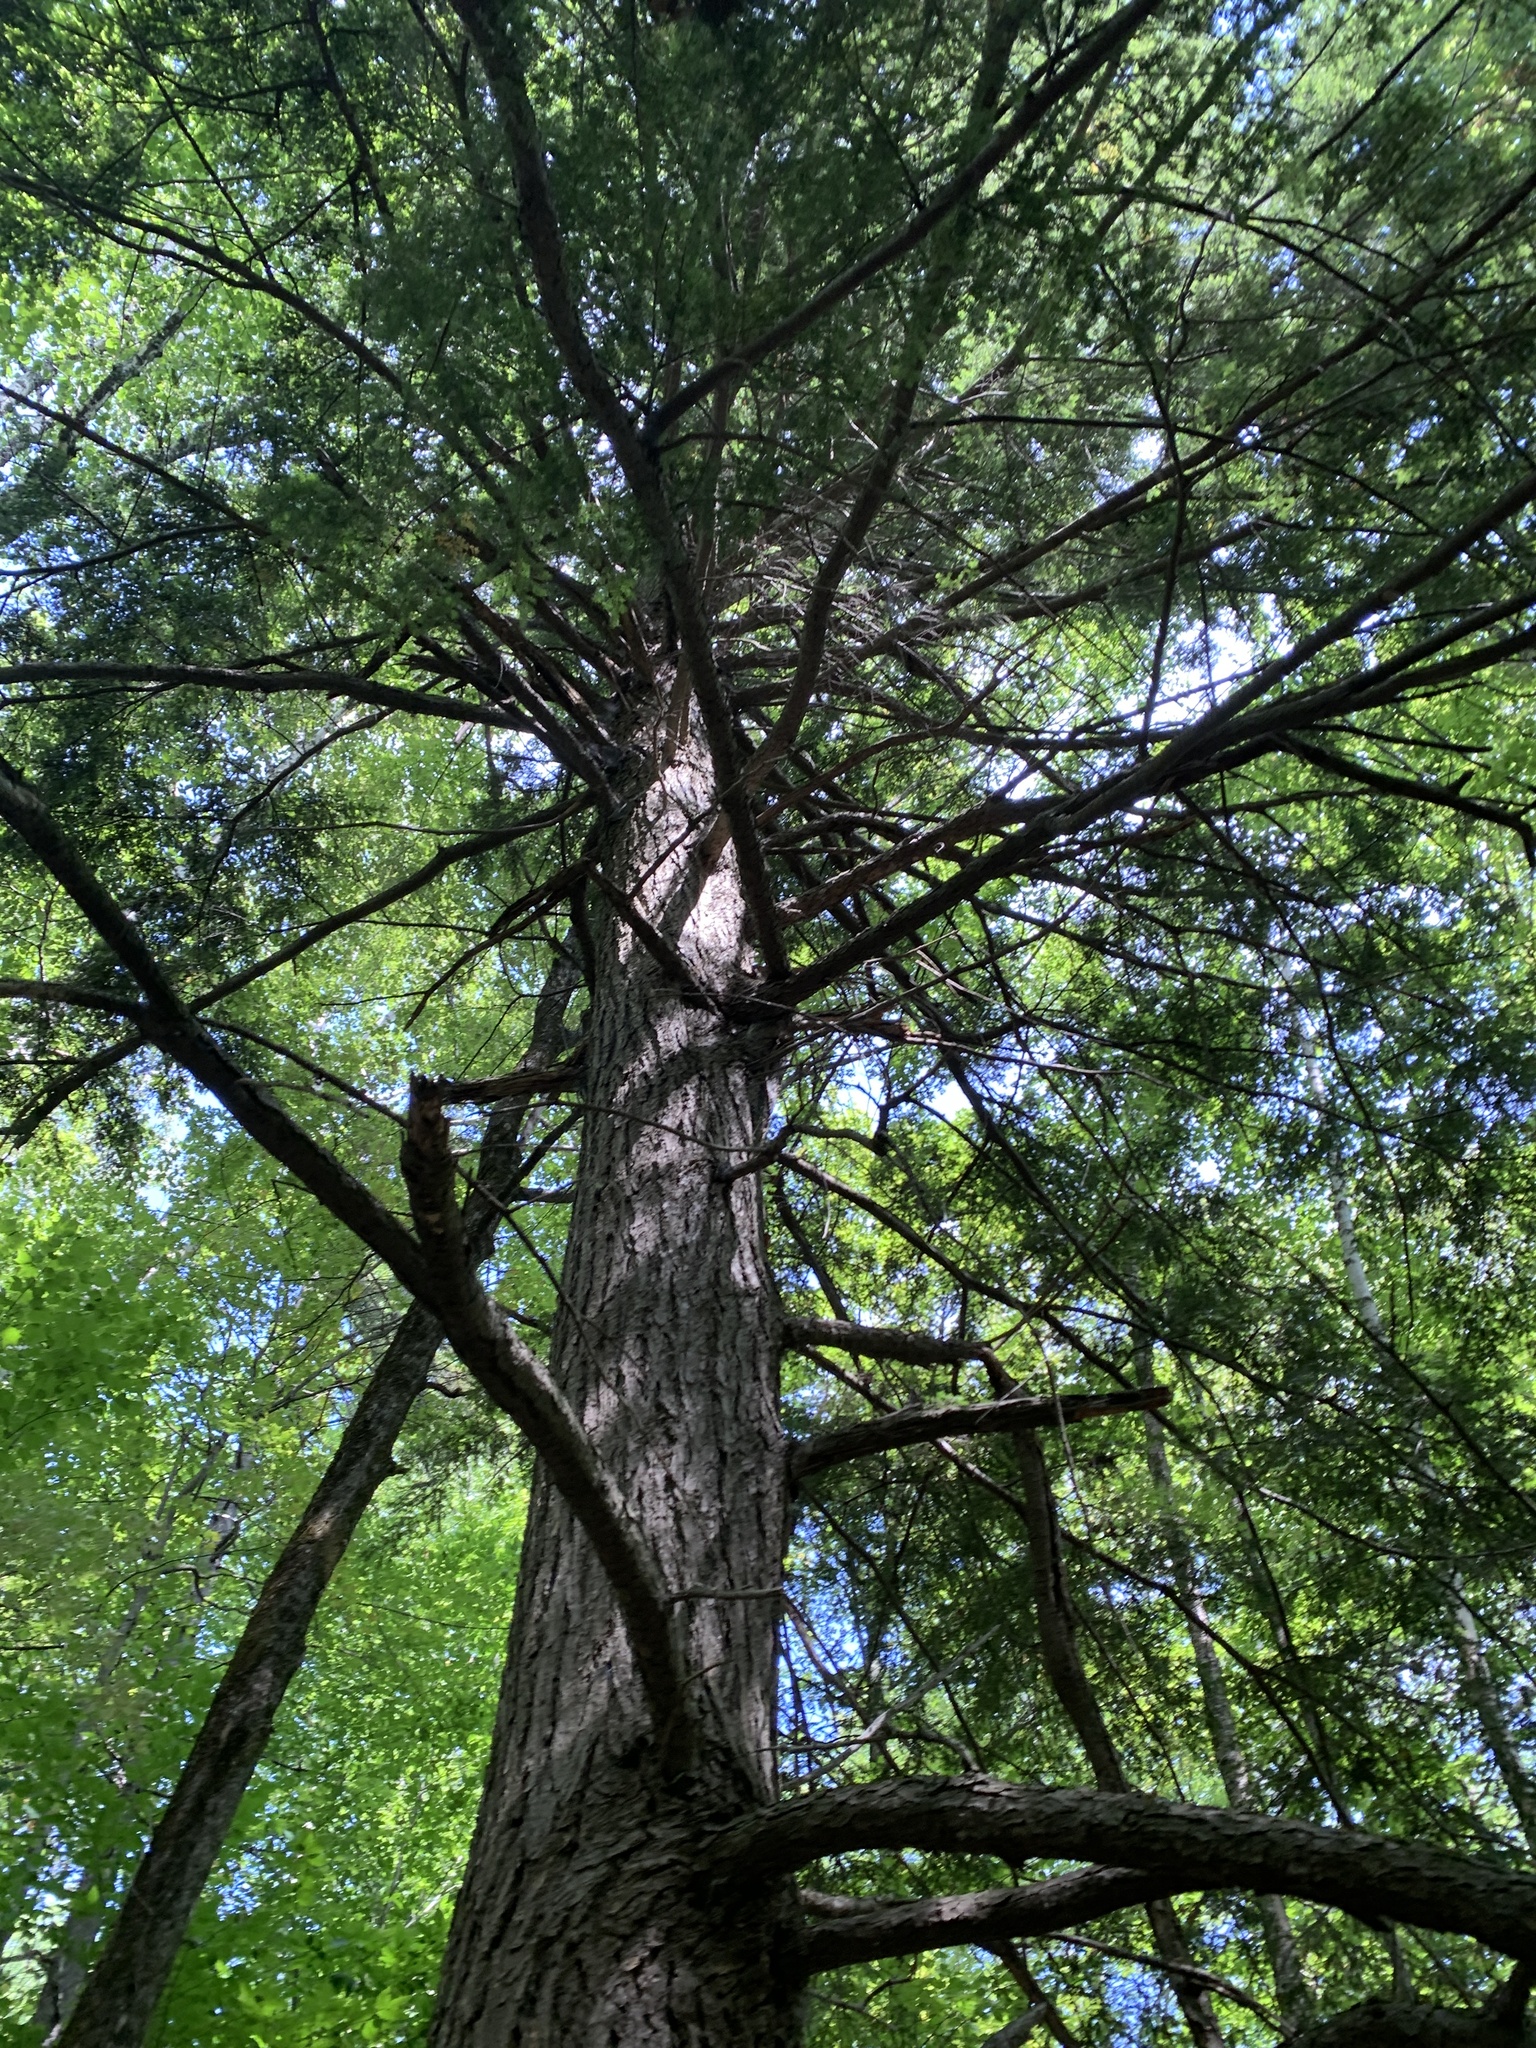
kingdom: Plantae
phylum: Tracheophyta
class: Pinopsida
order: Pinales
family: Pinaceae
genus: Tsuga
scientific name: Tsuga canadensis
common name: Eastern hemlock
